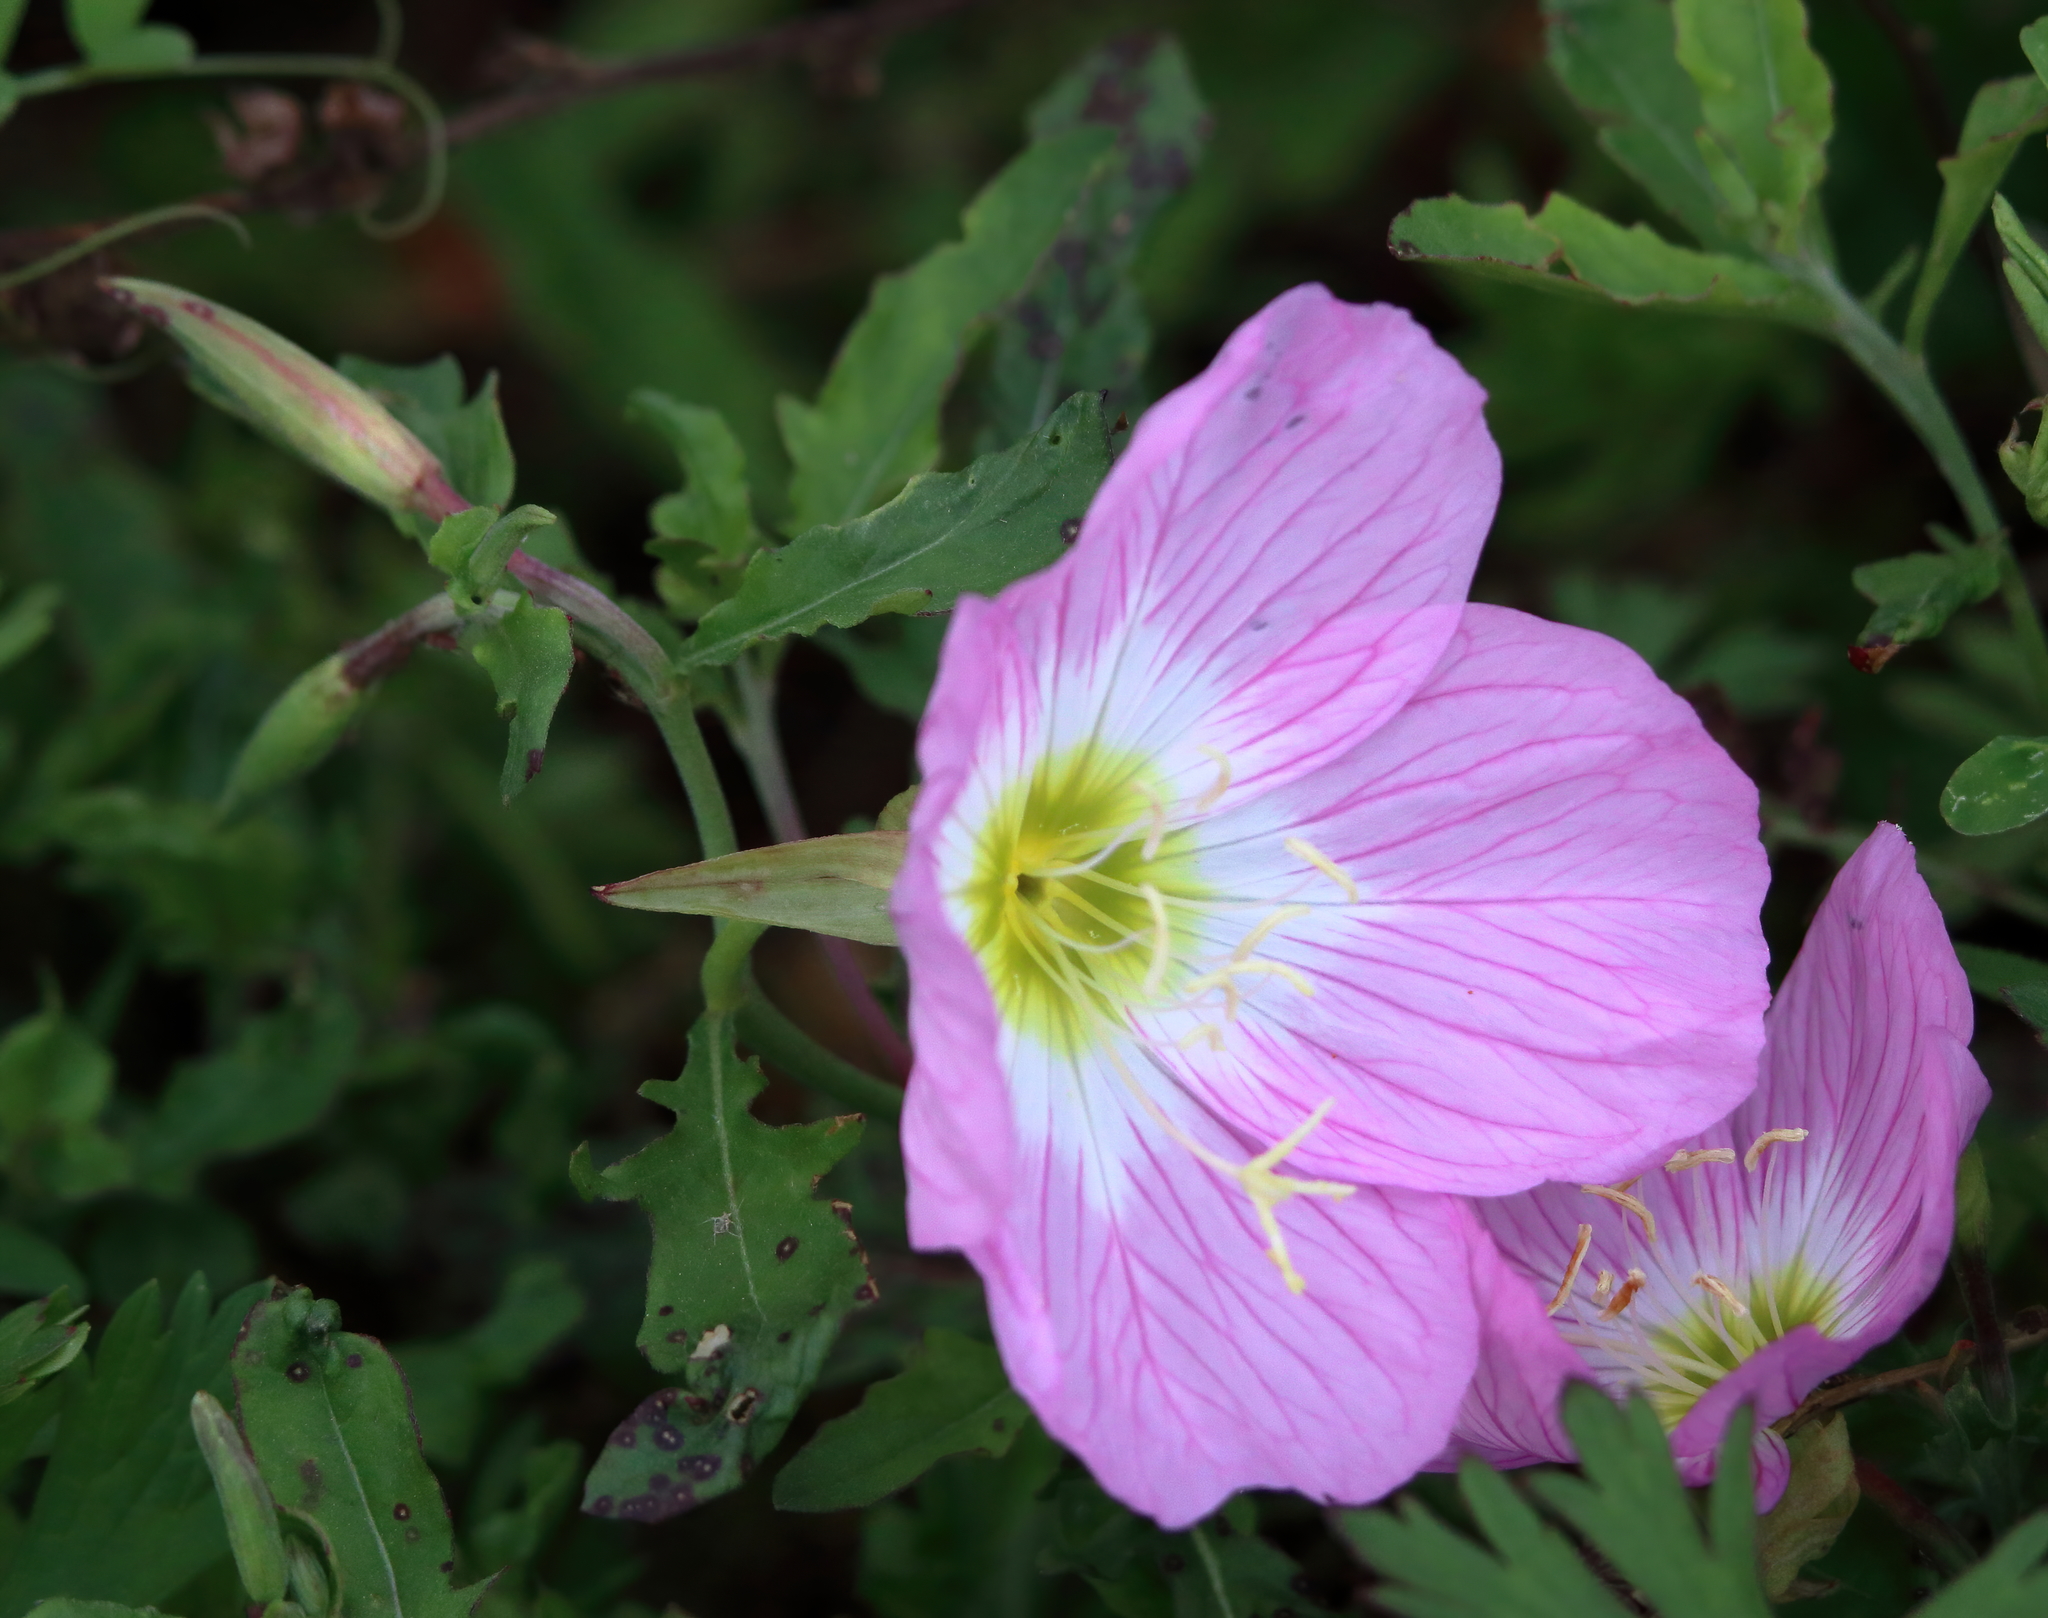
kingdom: Plantae
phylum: Tracheophyta
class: Magnoliopsida
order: Myrtales
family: Onagraceae
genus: Oenothera
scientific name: Oenothera speciosa
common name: White evening-primrose
